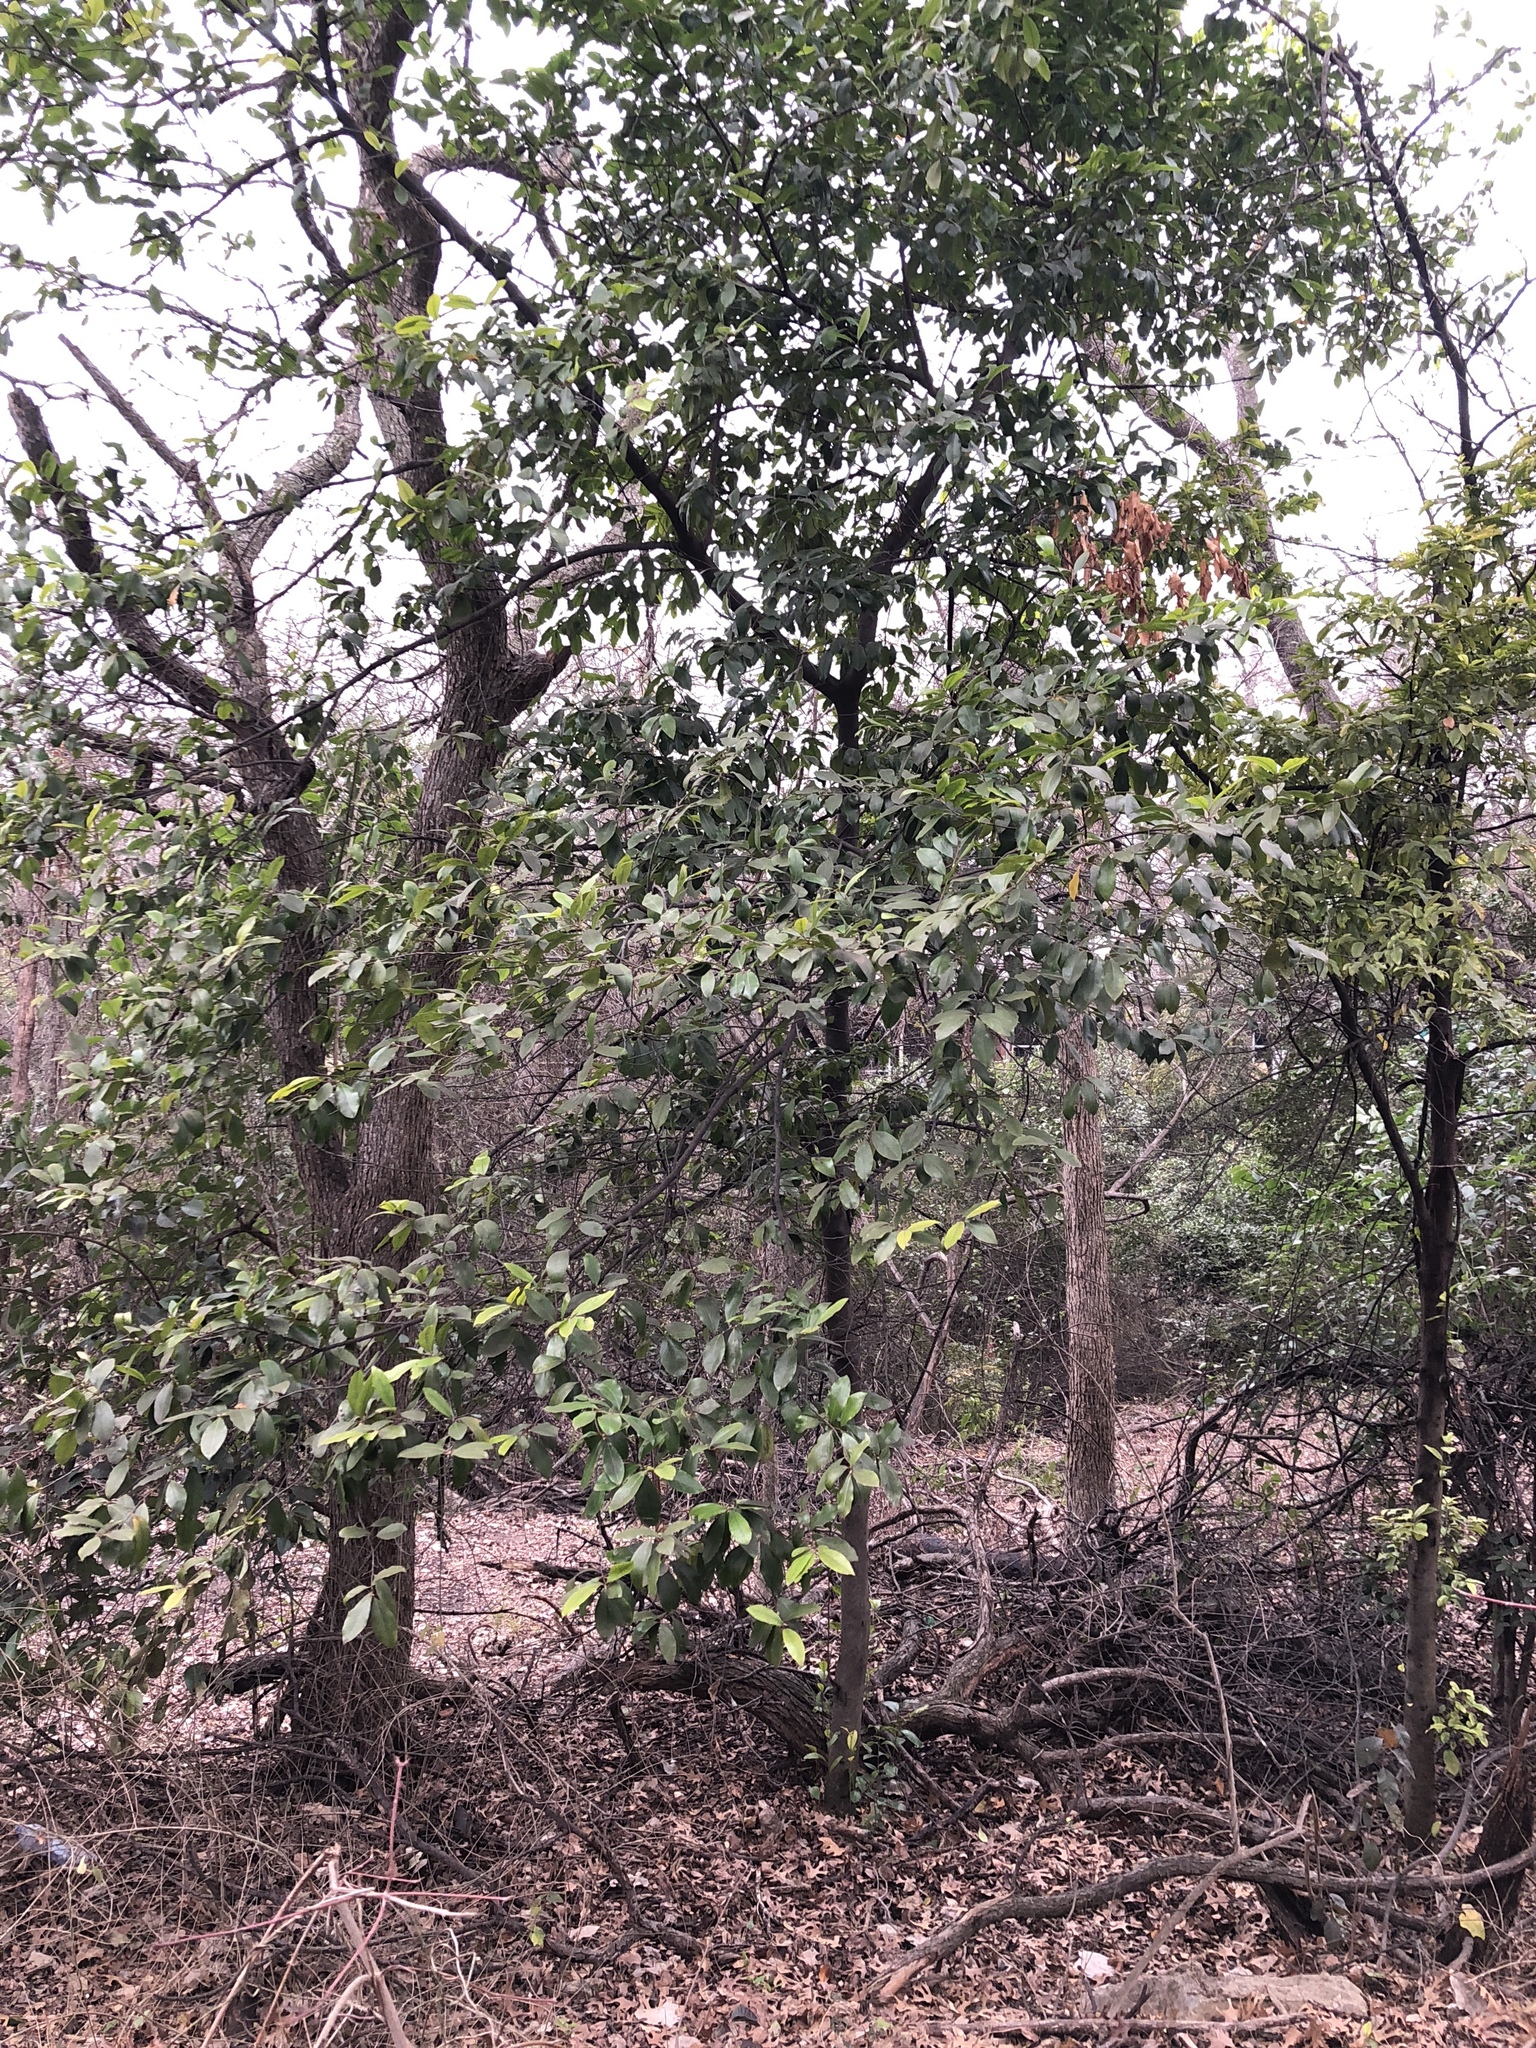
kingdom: Plantae
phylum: Tracheophyta
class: Magnoliopsida
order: Rosales
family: Rosaceae
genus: Prunus
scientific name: Prunus caroliniana
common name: Carolina laurel cherry
